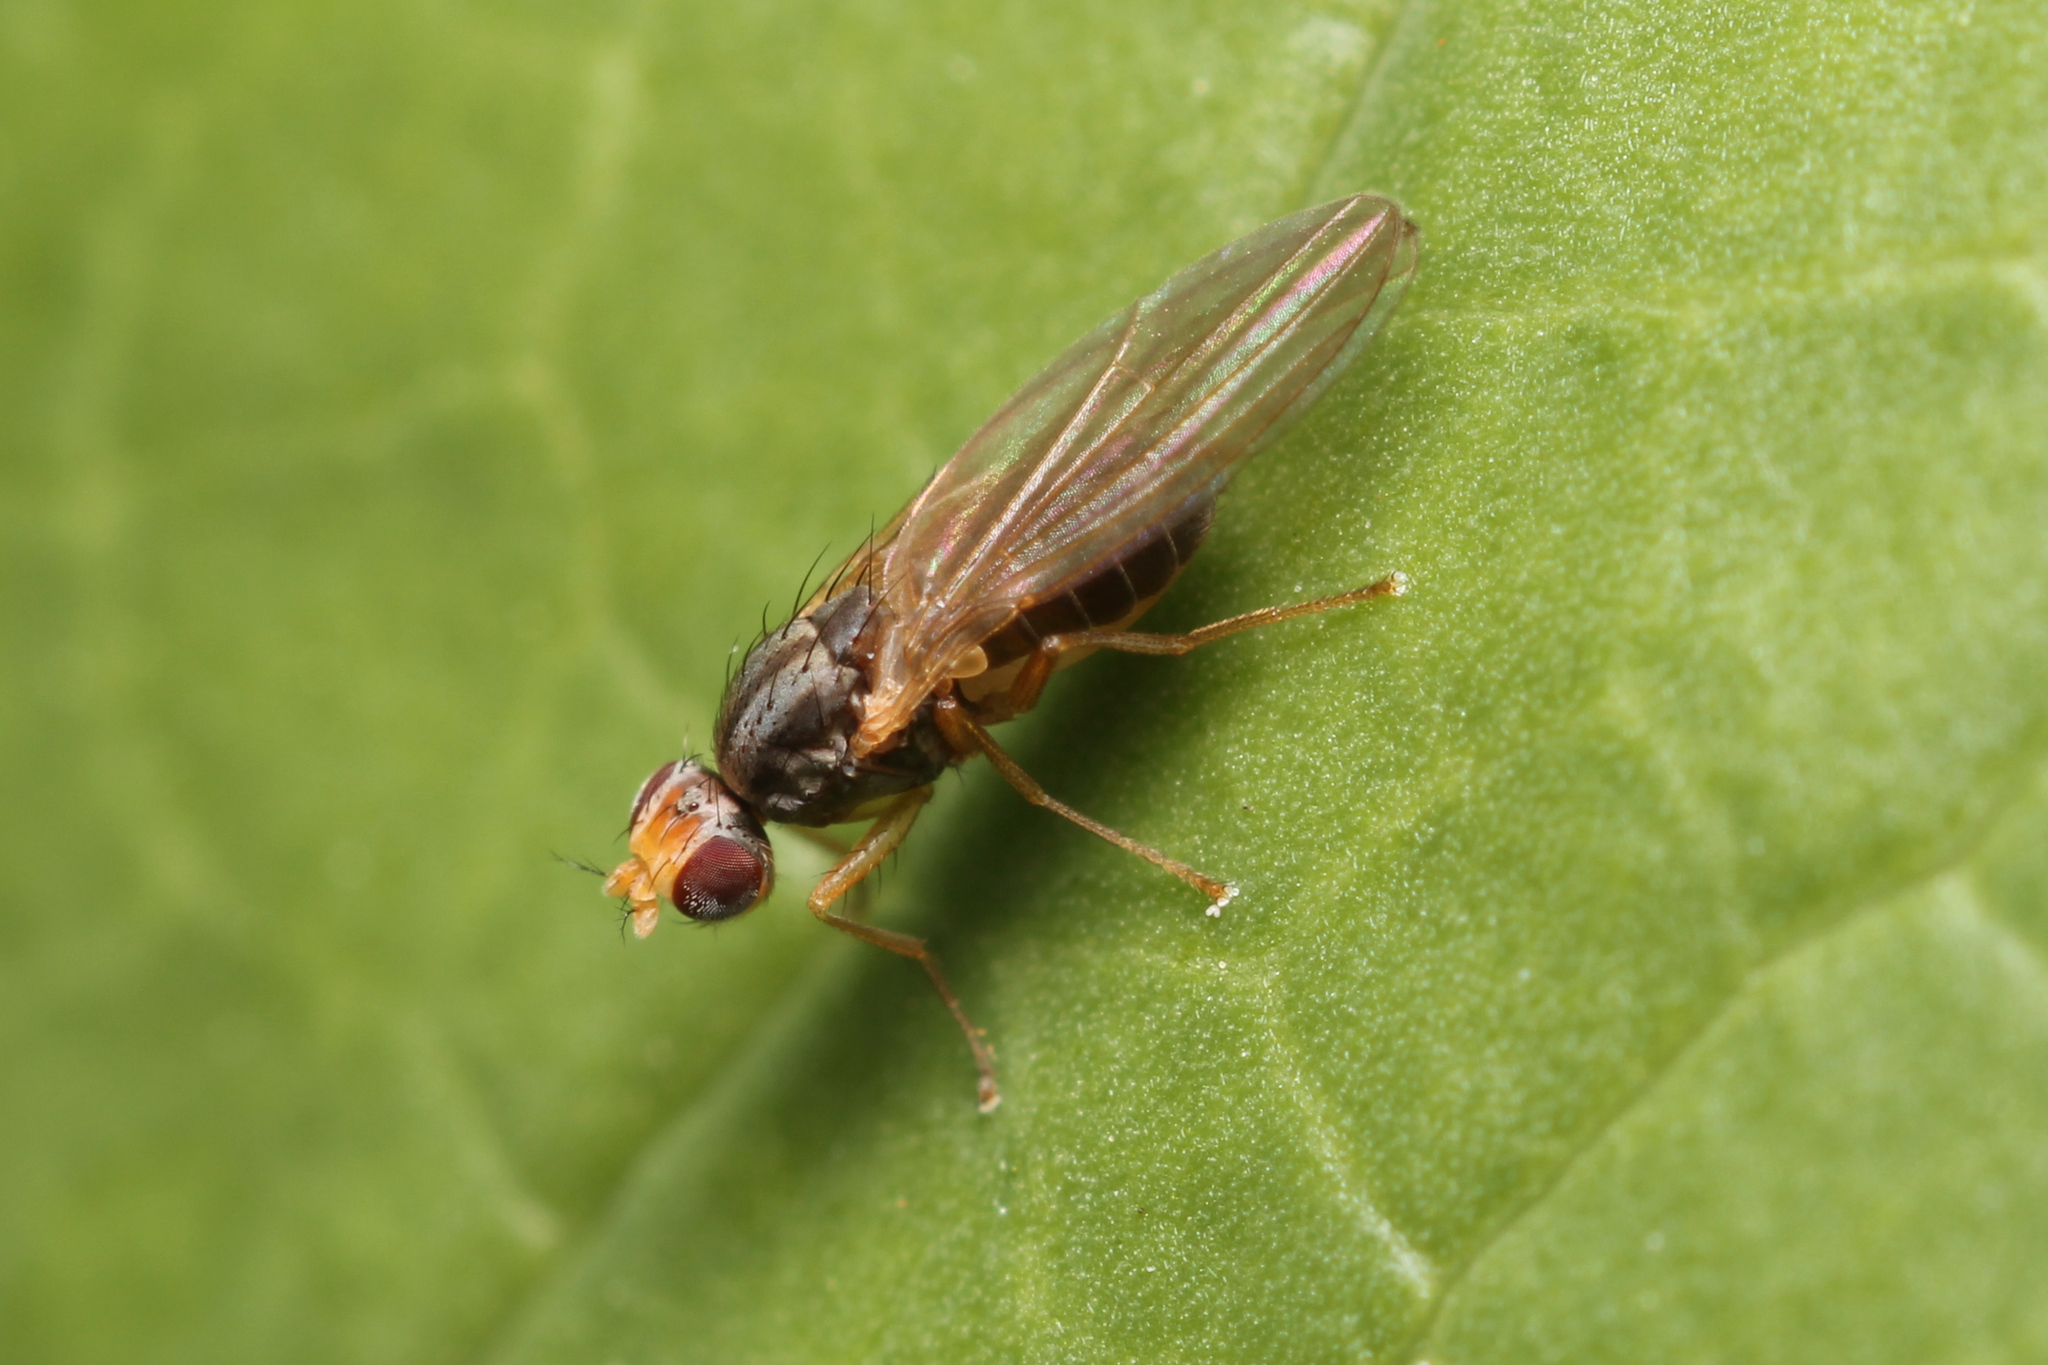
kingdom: Animalia
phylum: Arthropoda
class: Insecta
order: Diptera
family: Drosophilidae
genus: Scaptomyza
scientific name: Scaptomyza flava
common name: Fruit fly
